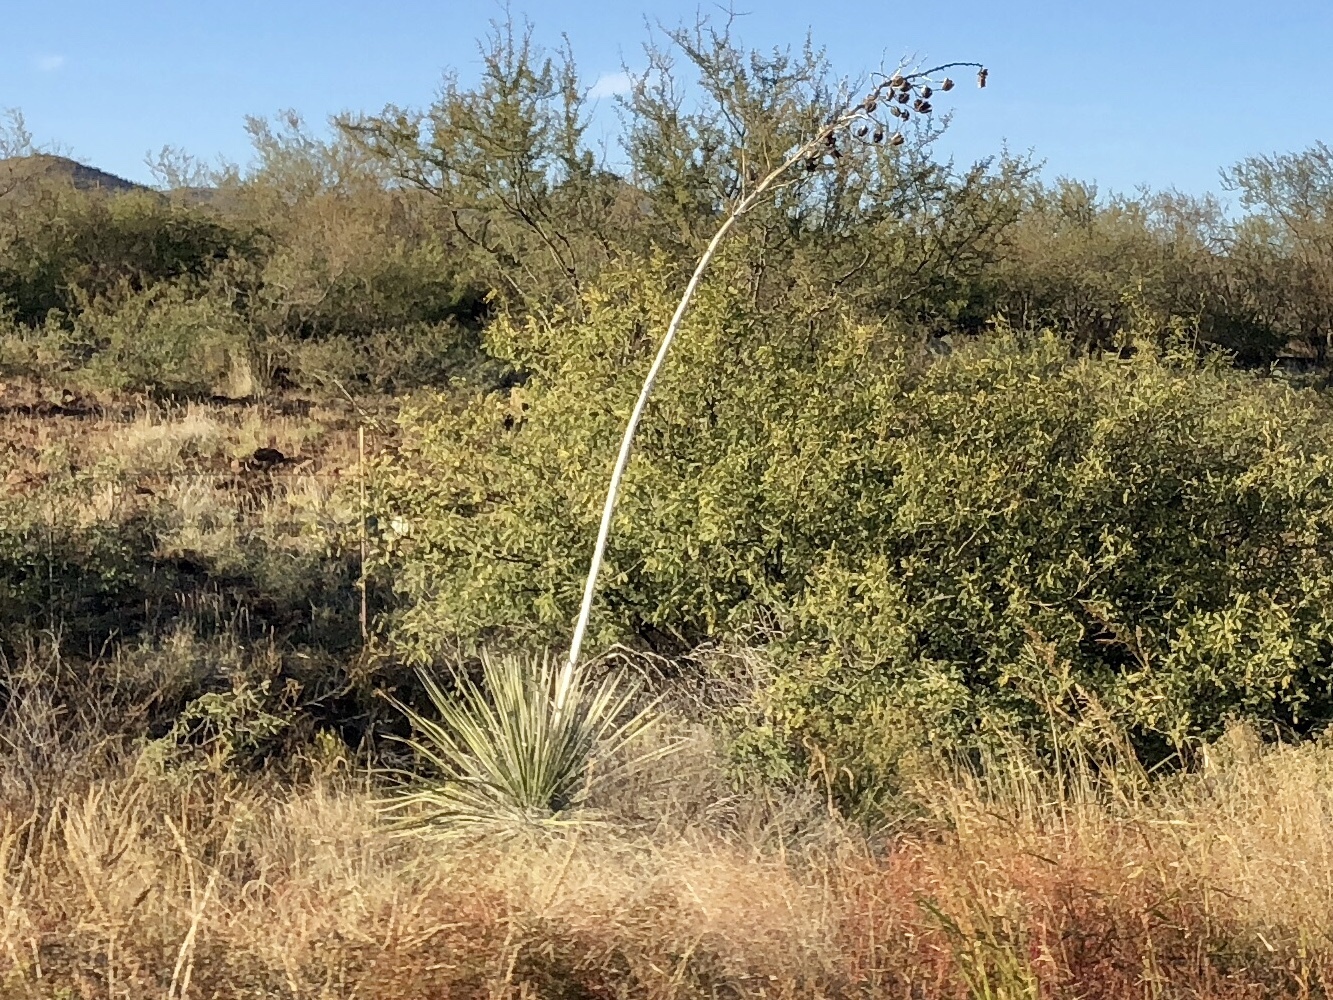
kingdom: Plantae
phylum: Tracheophyta
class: Liliopsida
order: Asparagales
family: Asparagaceae
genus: Yucca
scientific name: Yucca elata
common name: Palmella
